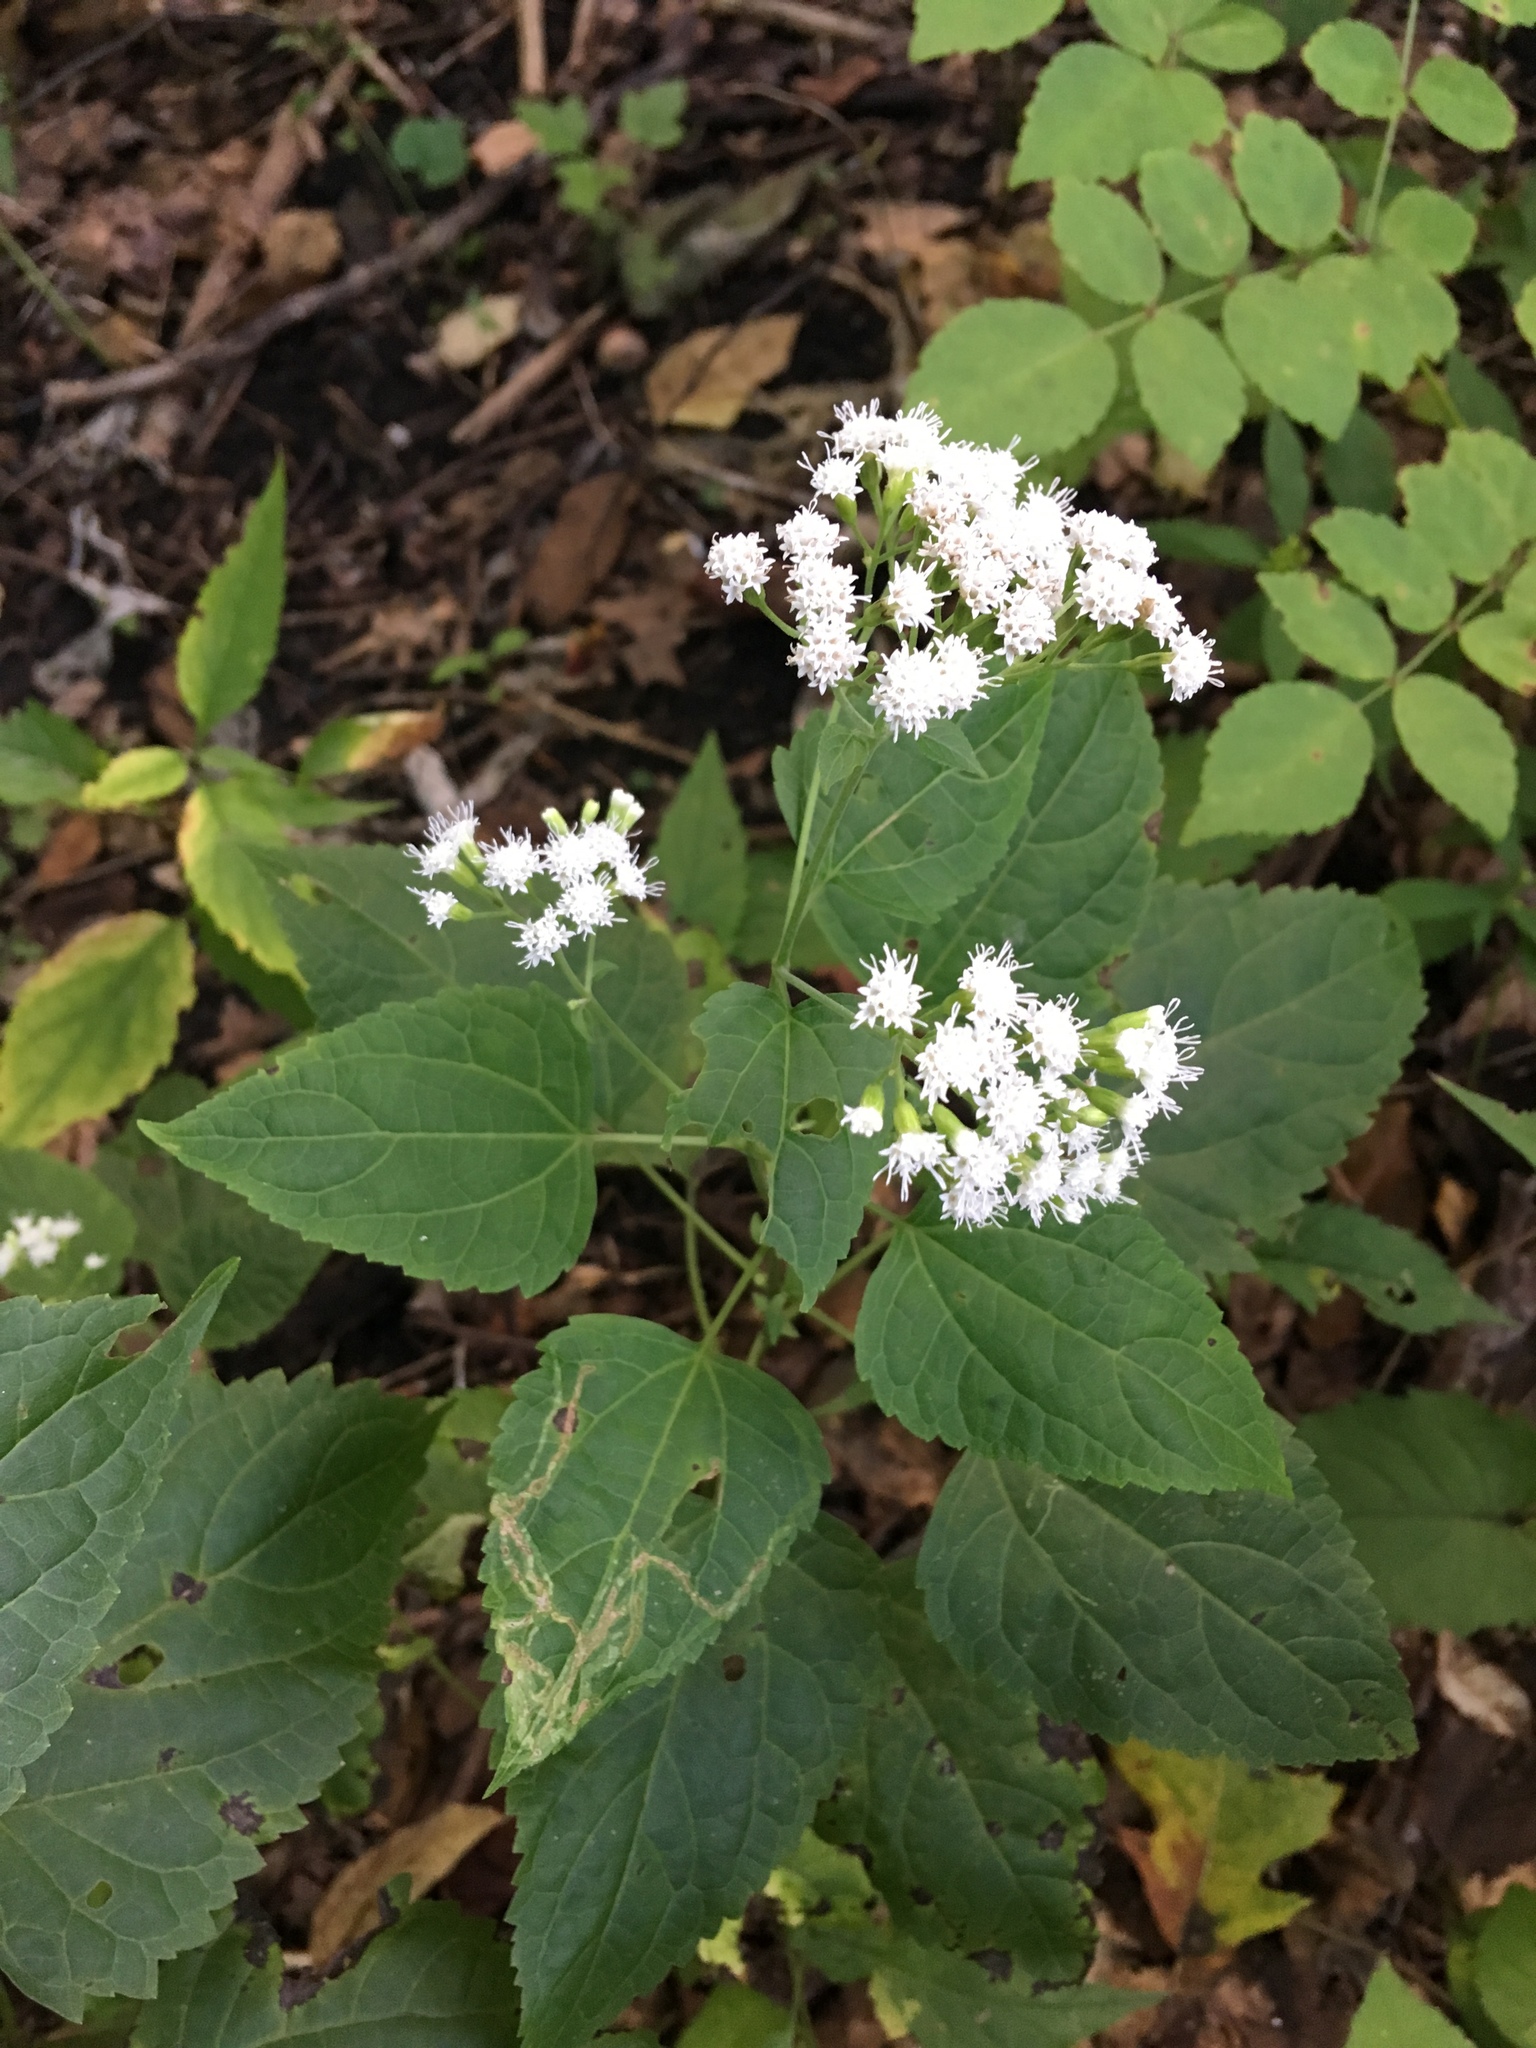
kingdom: Plantae
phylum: Tracheophyta
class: Magnoliopsida
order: Asterales
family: Asteraceae
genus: Ageratina
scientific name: Ageratina altissima
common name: White snakeroot
